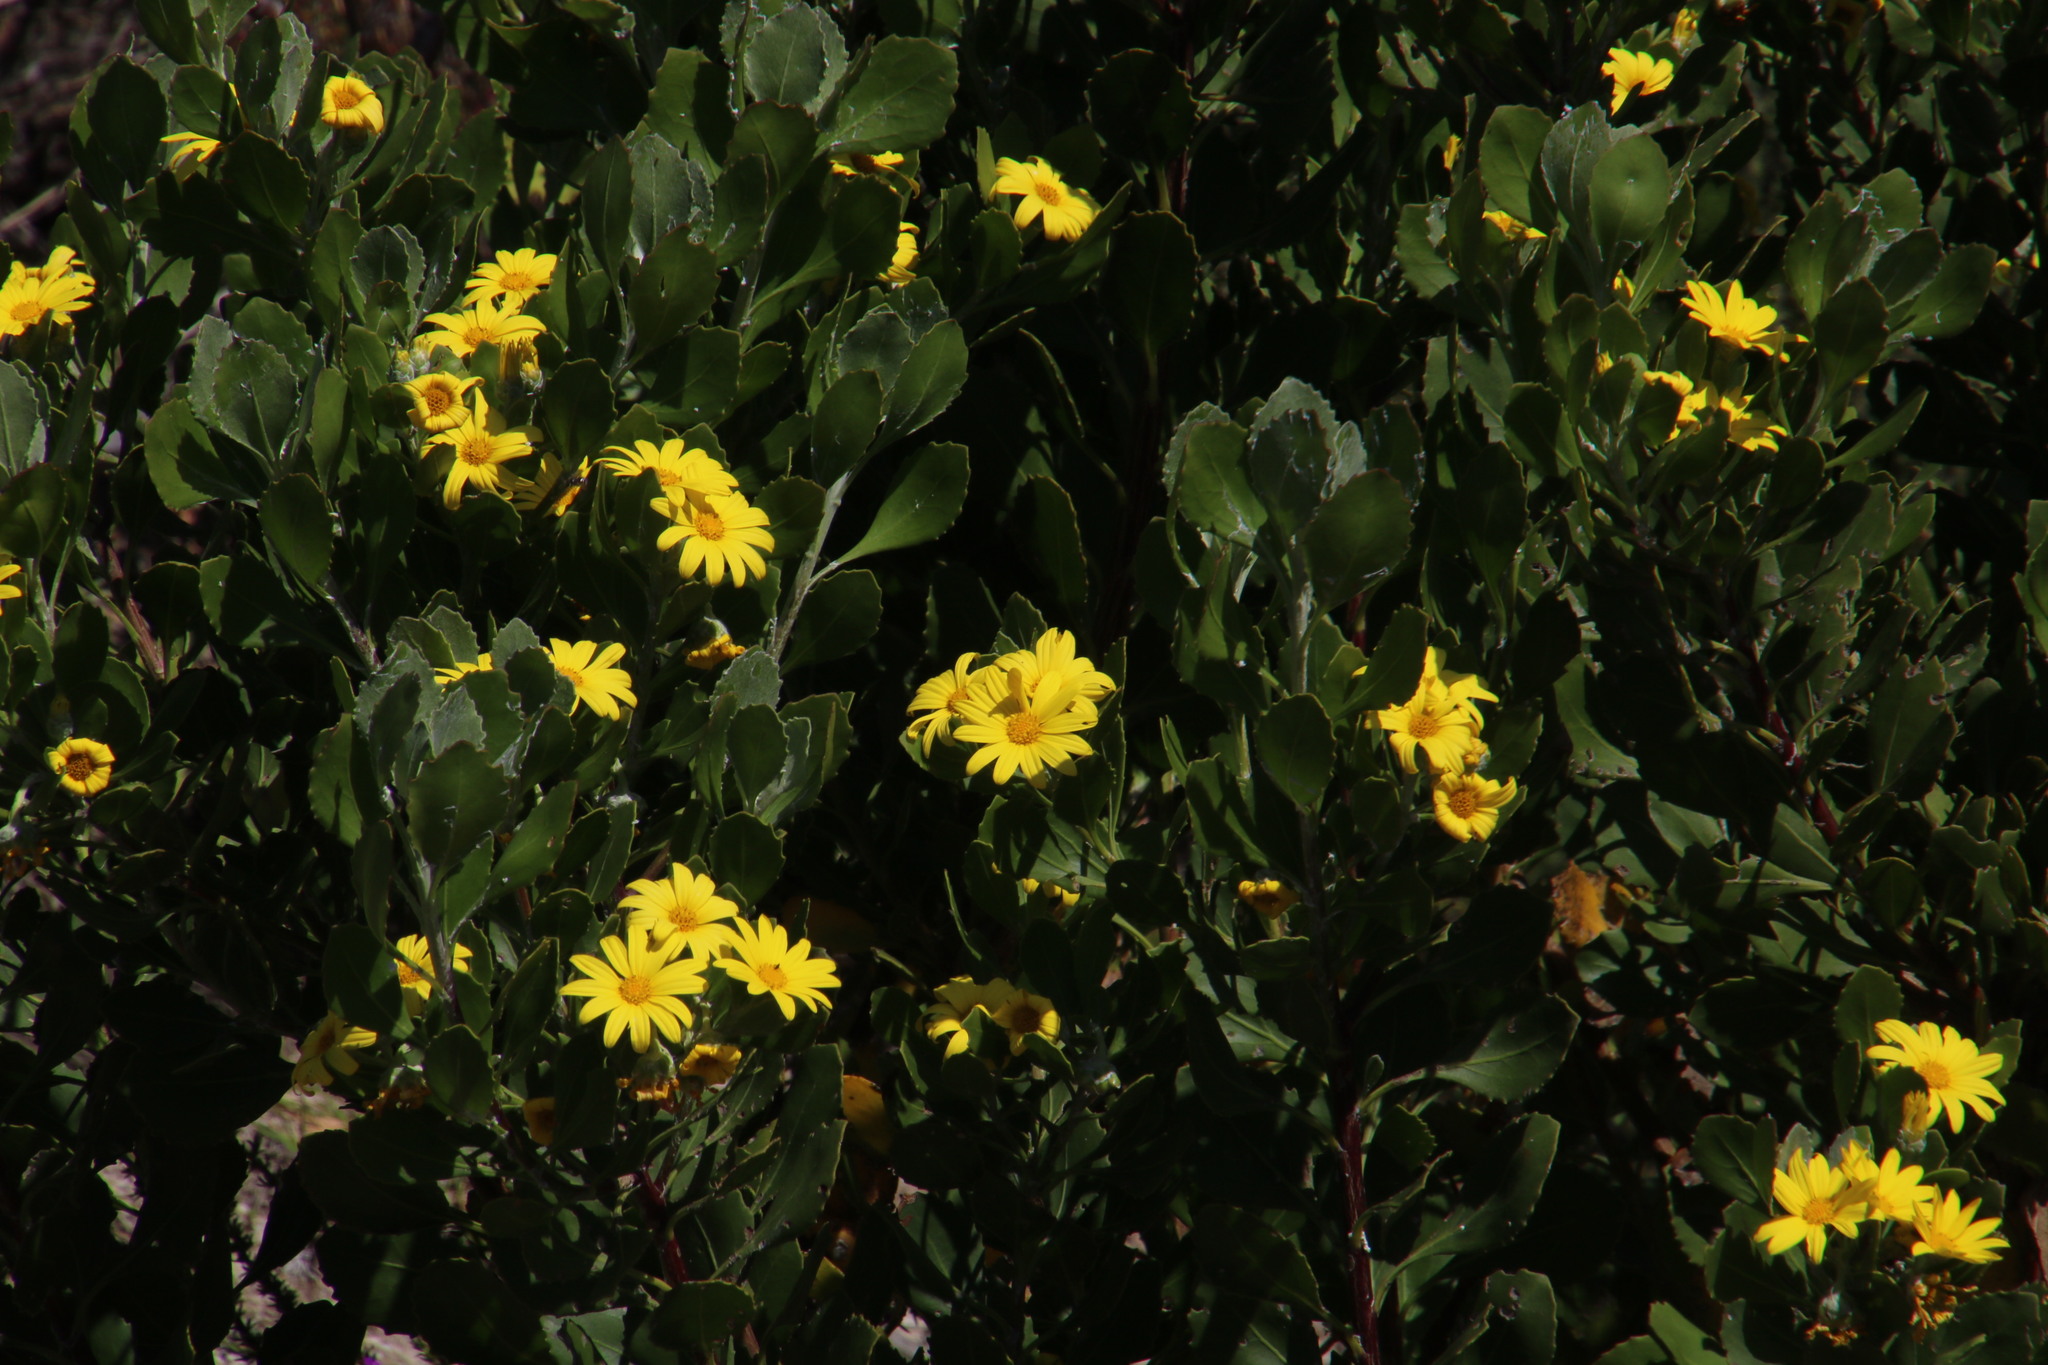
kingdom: Plantae
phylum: Tracheophyta
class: Magnoliopsida
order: Asterales
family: Asteraceae
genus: Osteospermum
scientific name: Osteospermum moniliferum
